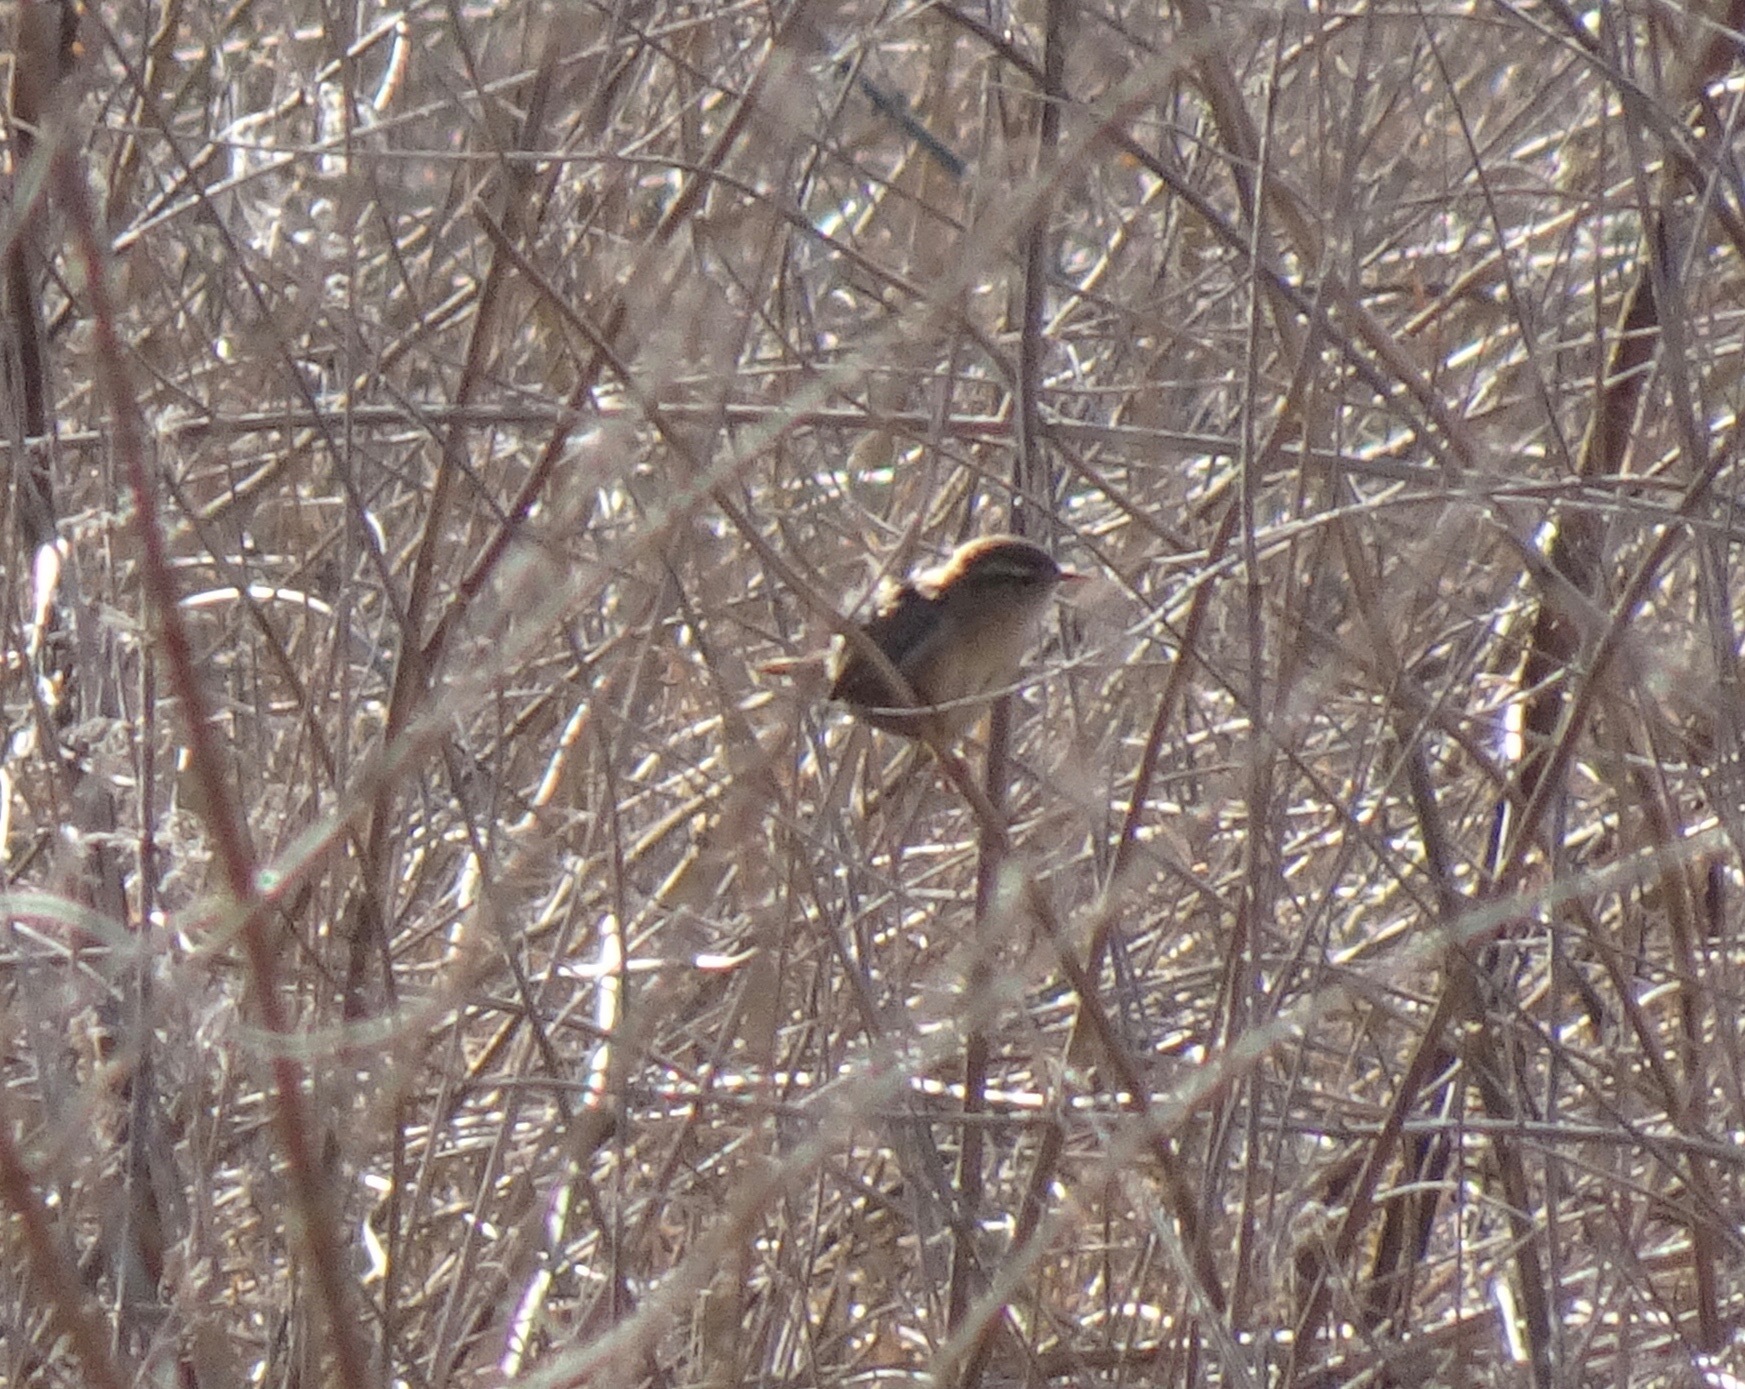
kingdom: Animalia
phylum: Chordata
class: Aves
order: Passeriformes
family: Troglodytidae
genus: Troglodytes
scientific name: Troglodytes troglodytes
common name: Eurasian wren
